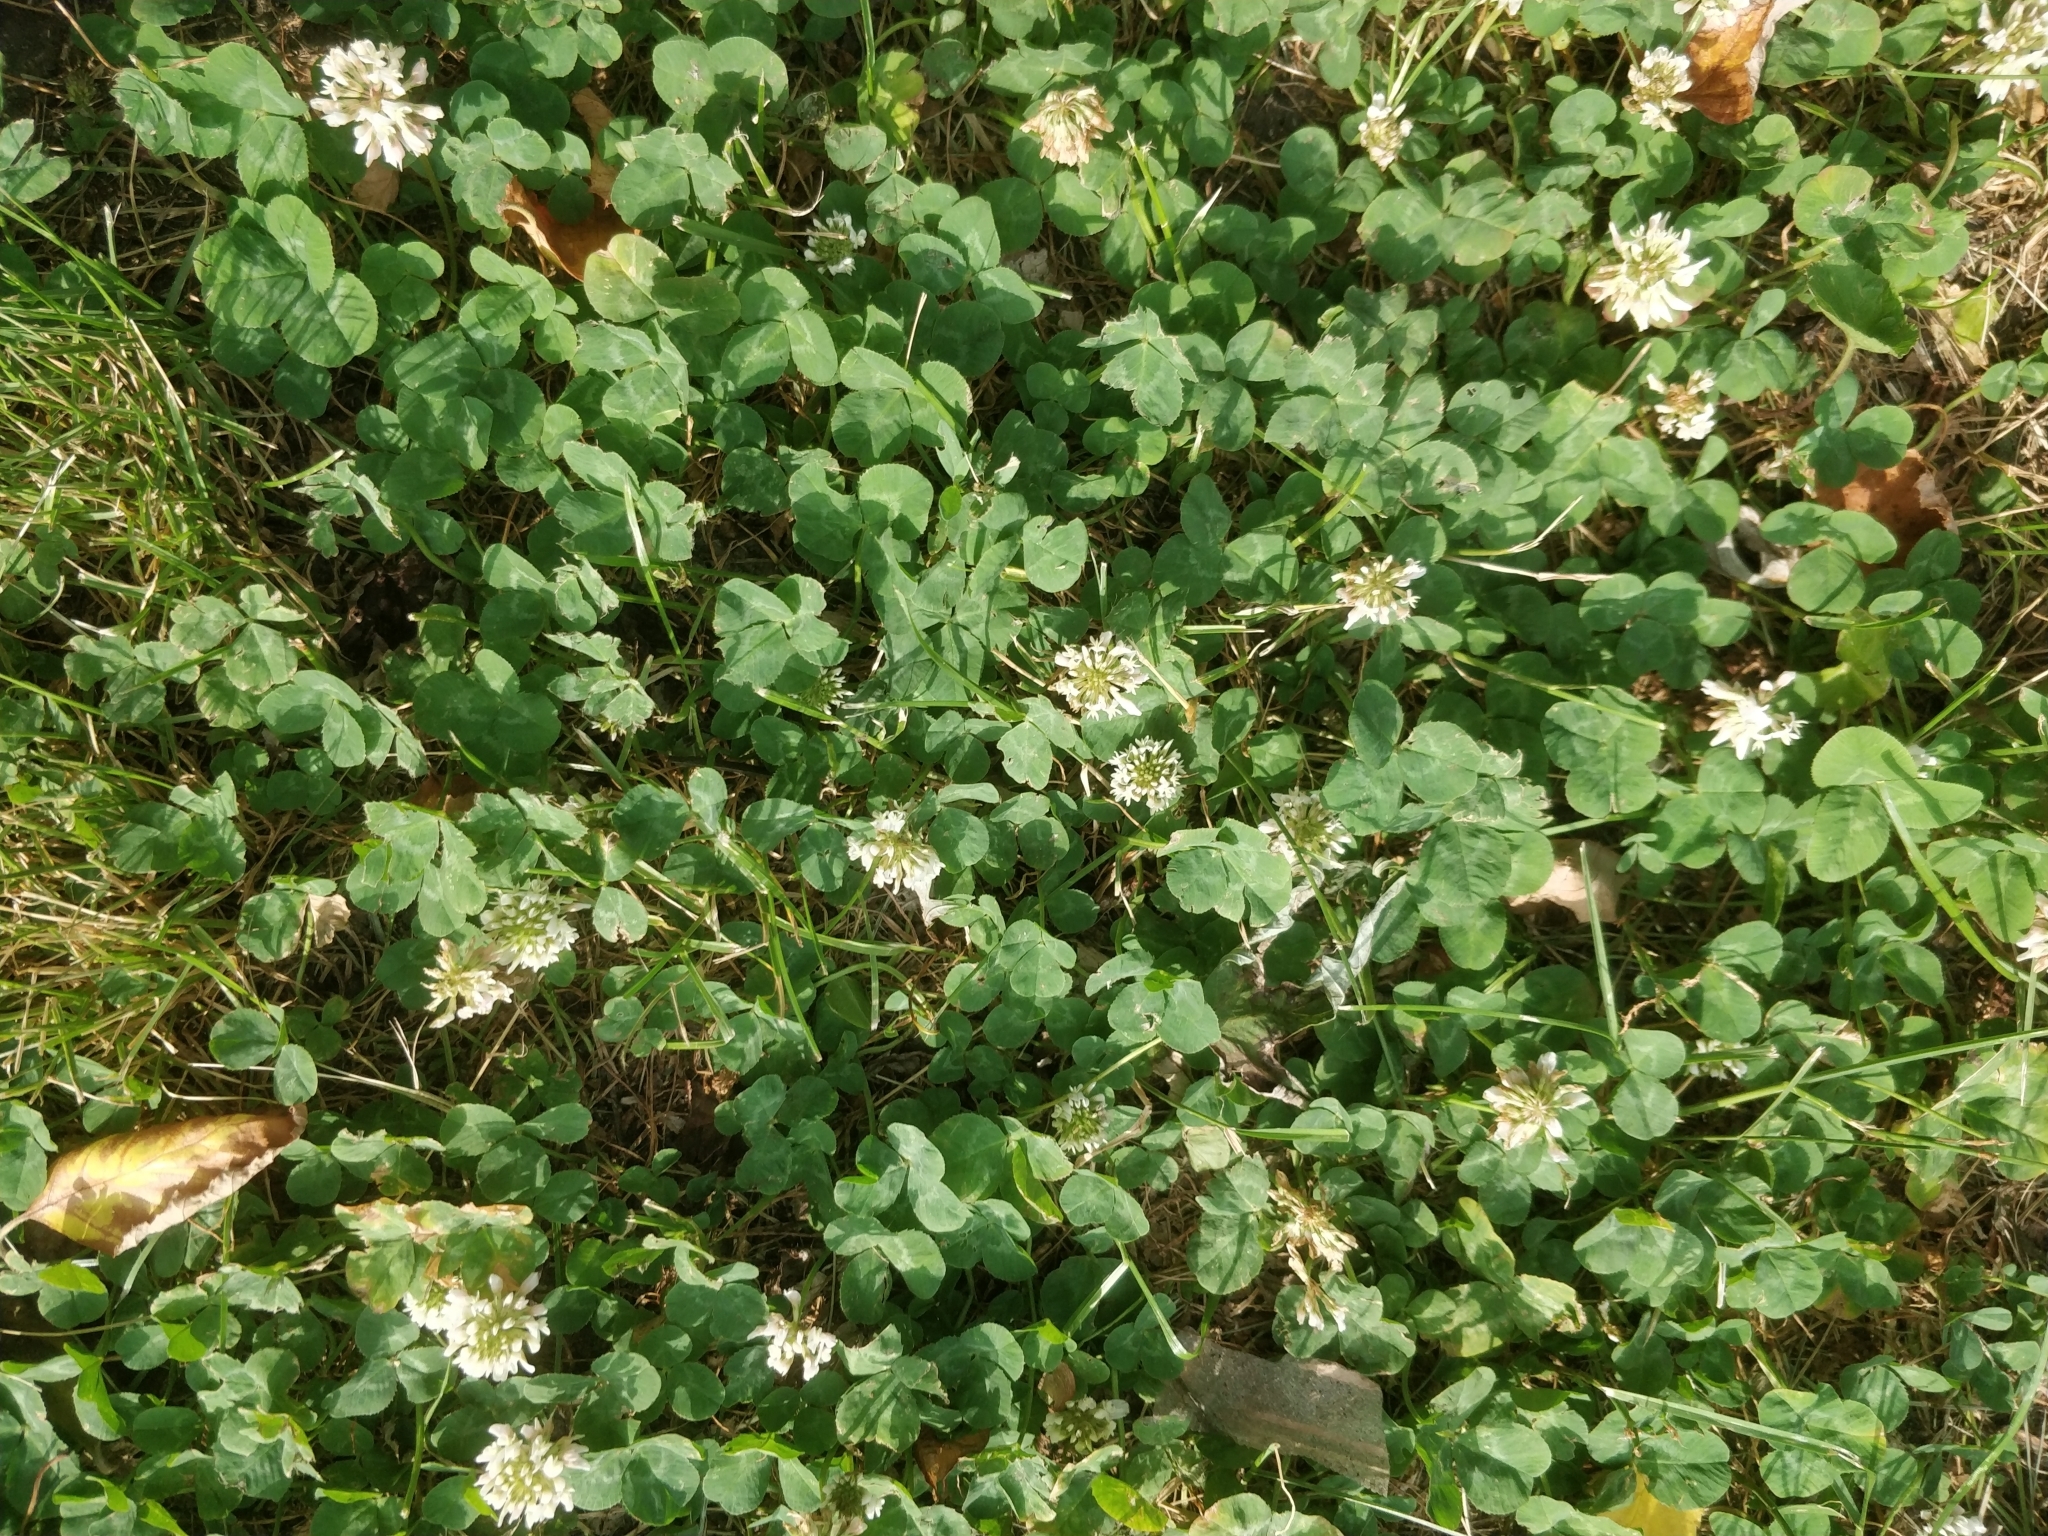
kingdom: Plantae
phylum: Tracheophyta
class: Magnoliopsida
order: Fabales
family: Fabaceae
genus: Trifolium
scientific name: Trifolium repens
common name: White clover
